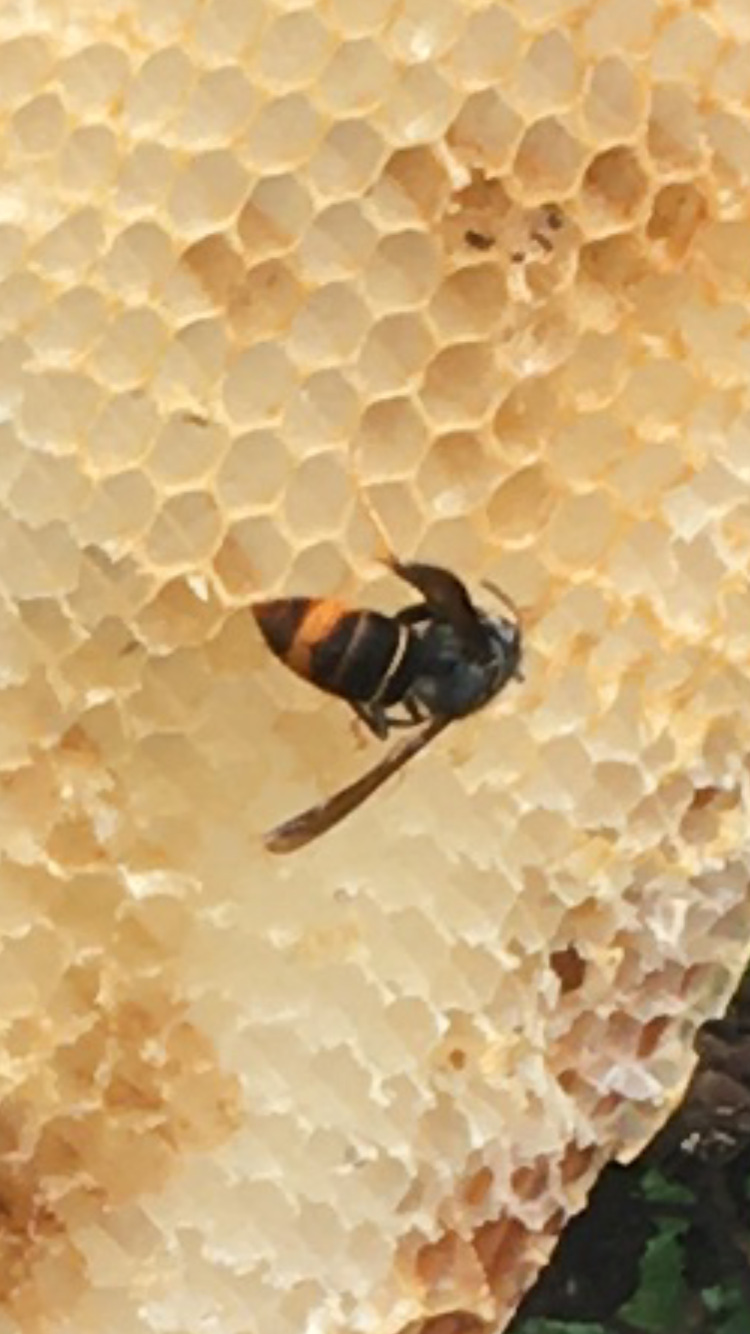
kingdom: Animalia
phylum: Arthropoda
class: Insecta
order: Hymenoptera
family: Vespidae
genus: Vespa
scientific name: Vespa velutina
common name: Asian hornet
